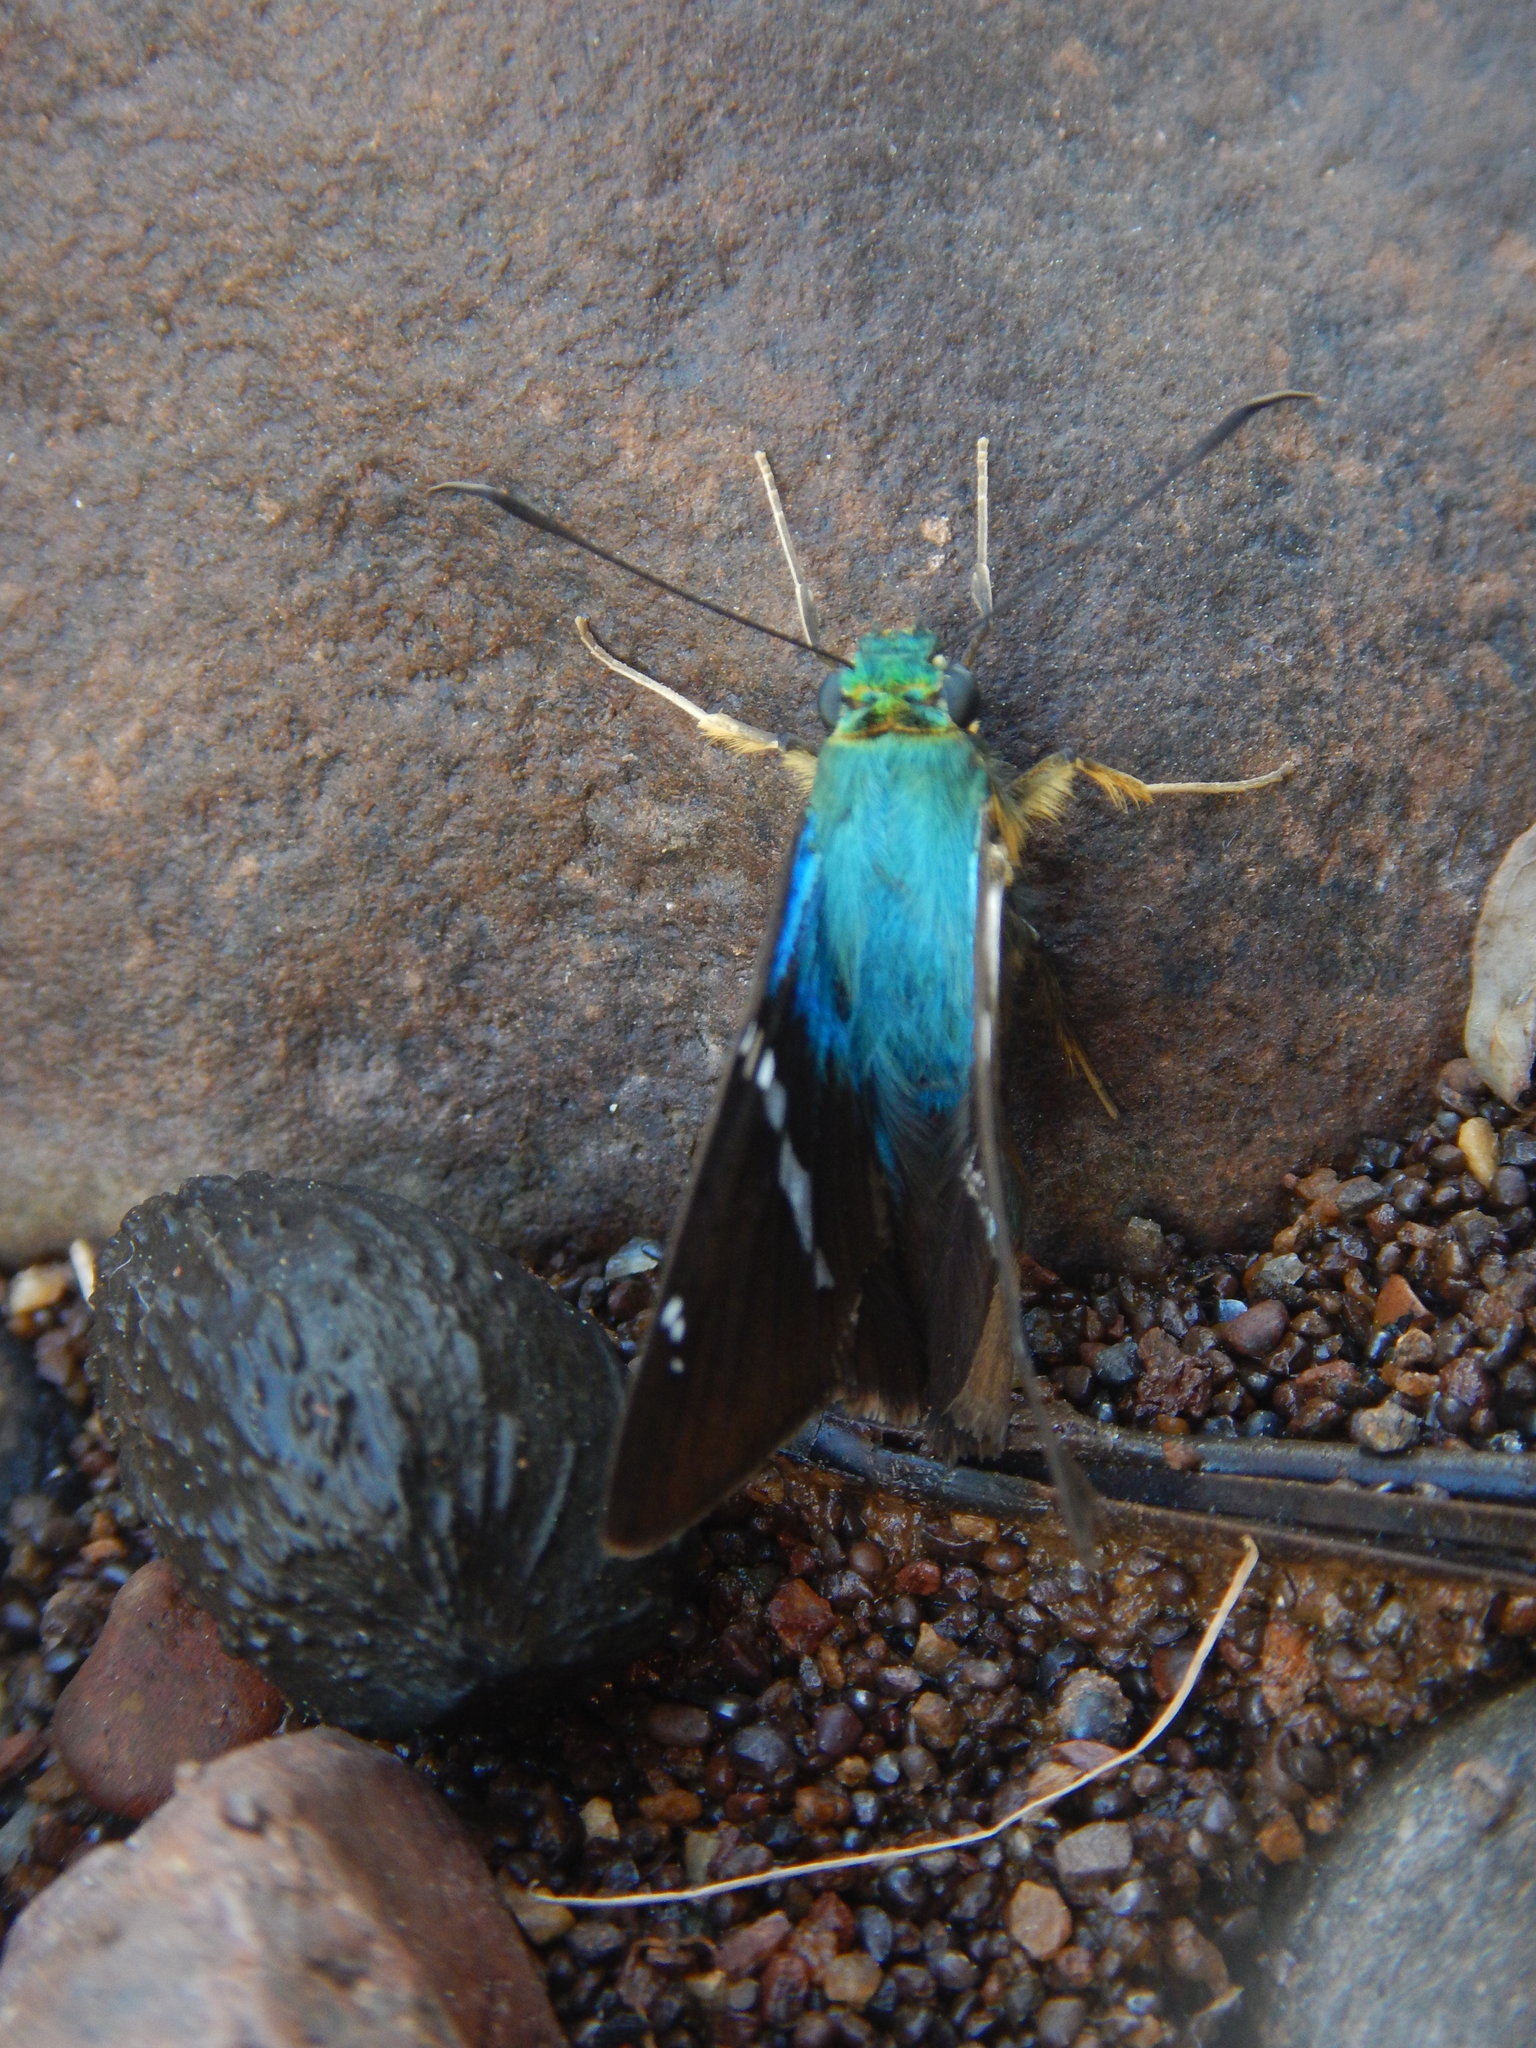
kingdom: Animalia
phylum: Arthropoda
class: Insecta
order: Lepidoptera
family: Hesperiidae
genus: Astraptes
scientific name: Astraptes fulgerator
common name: Two-barred flasher
